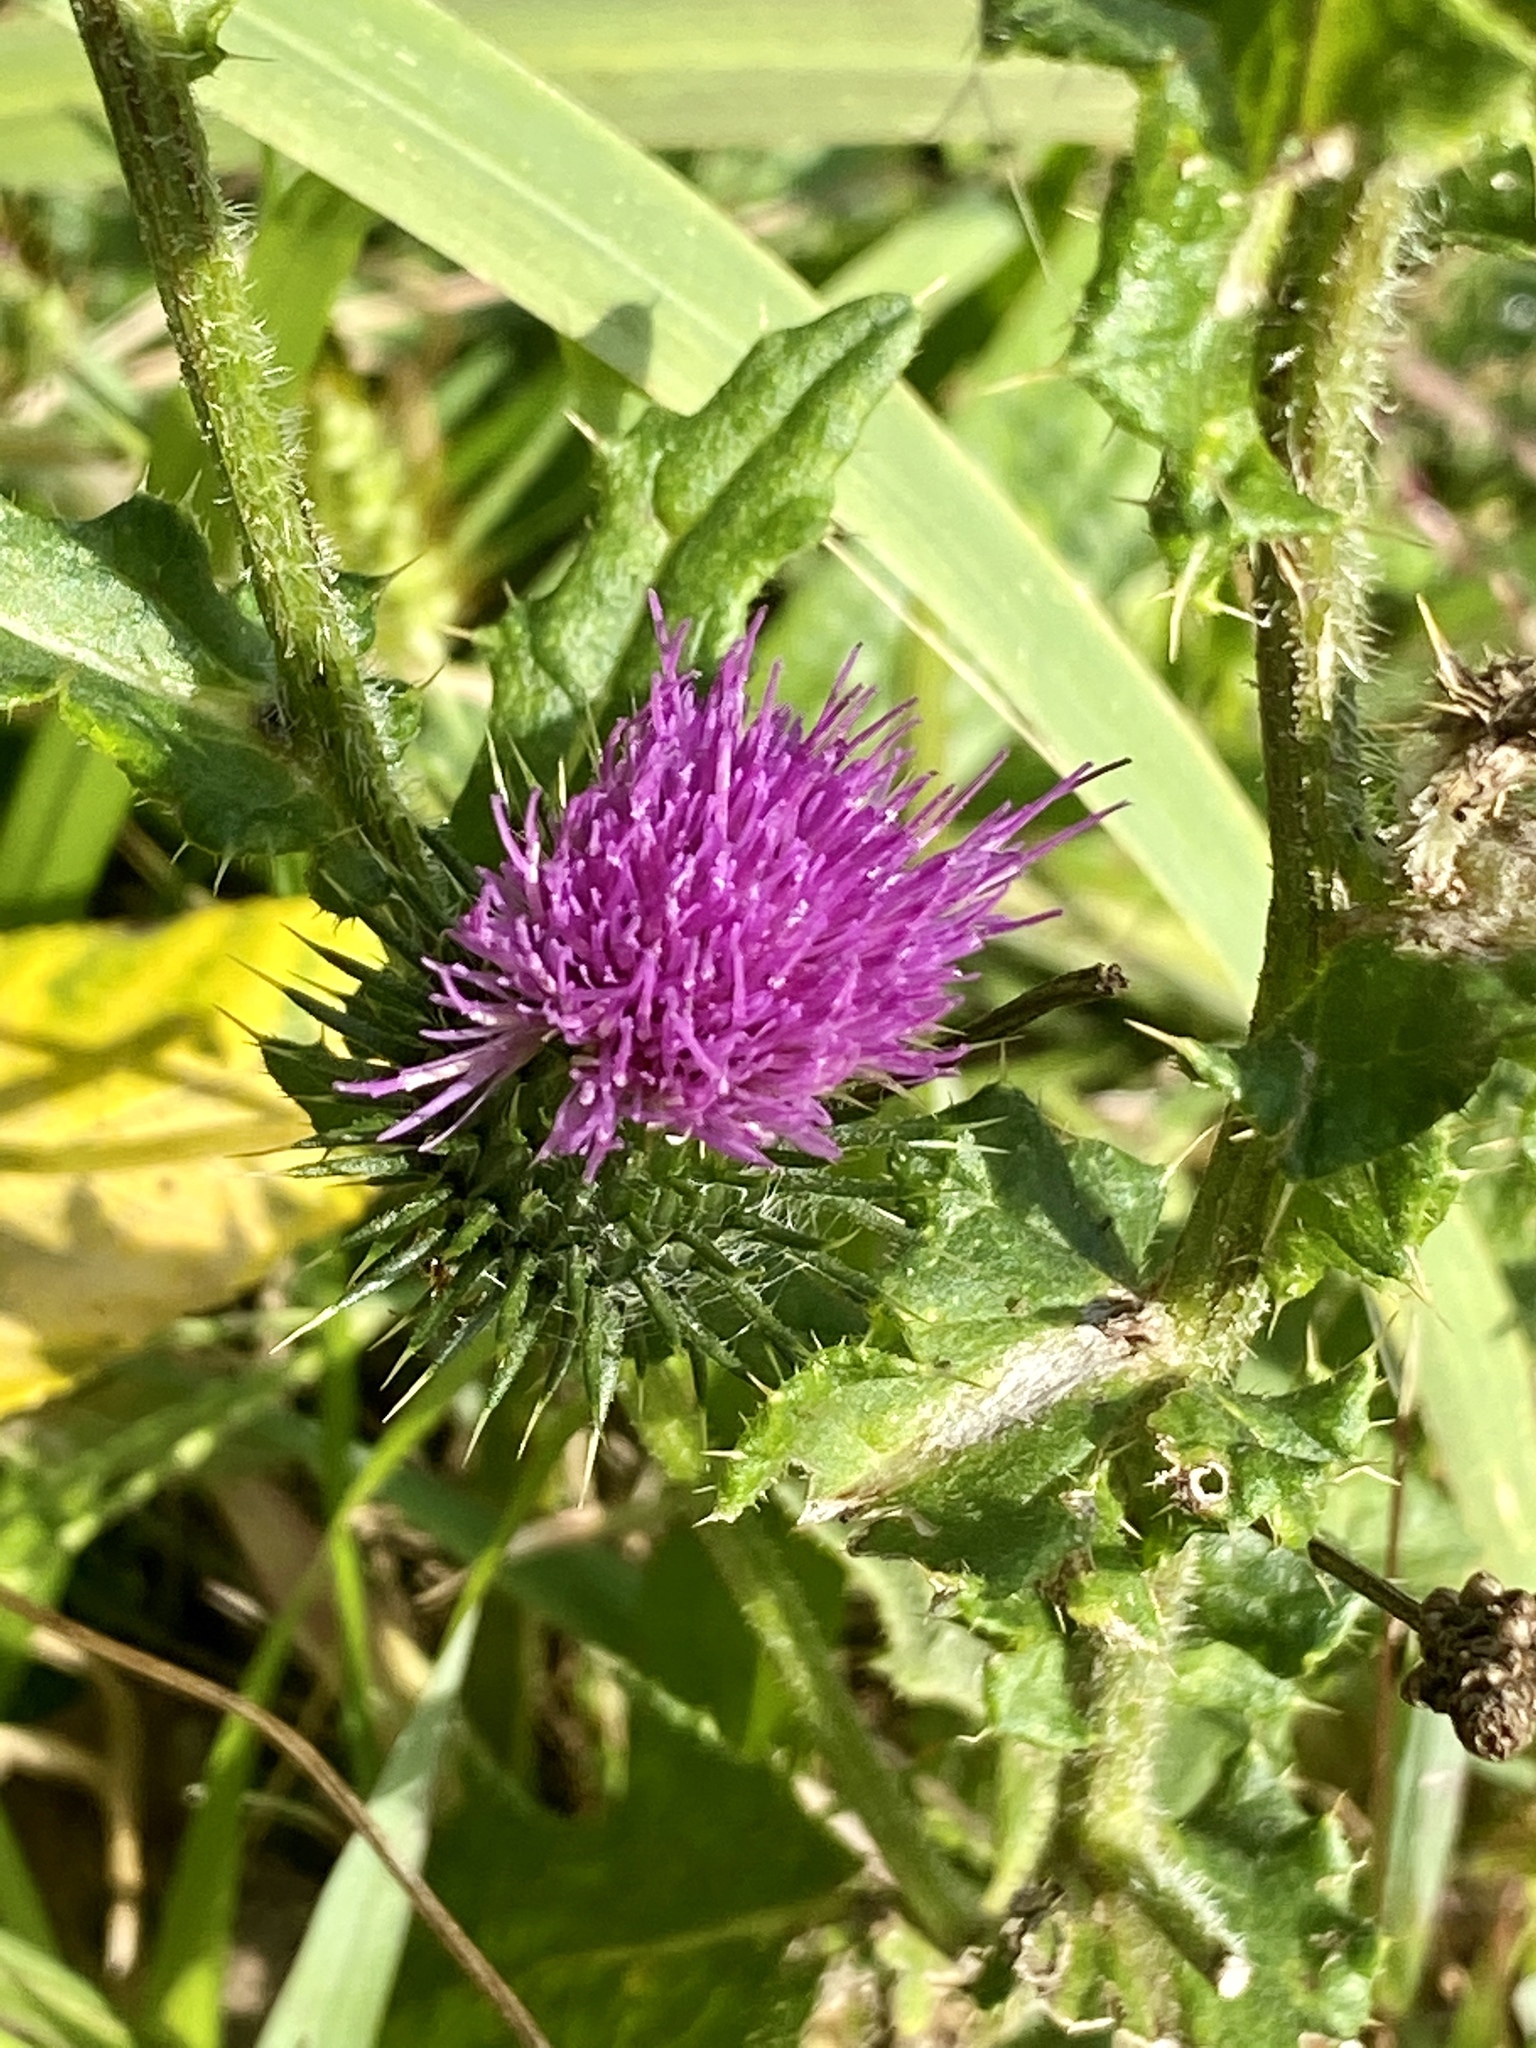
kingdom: Plantae
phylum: Tracheophyta
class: Magnoliopsida
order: Asterales
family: Asteraceae
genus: Cirsium
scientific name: Cirsium vulgare
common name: Bull thistle
